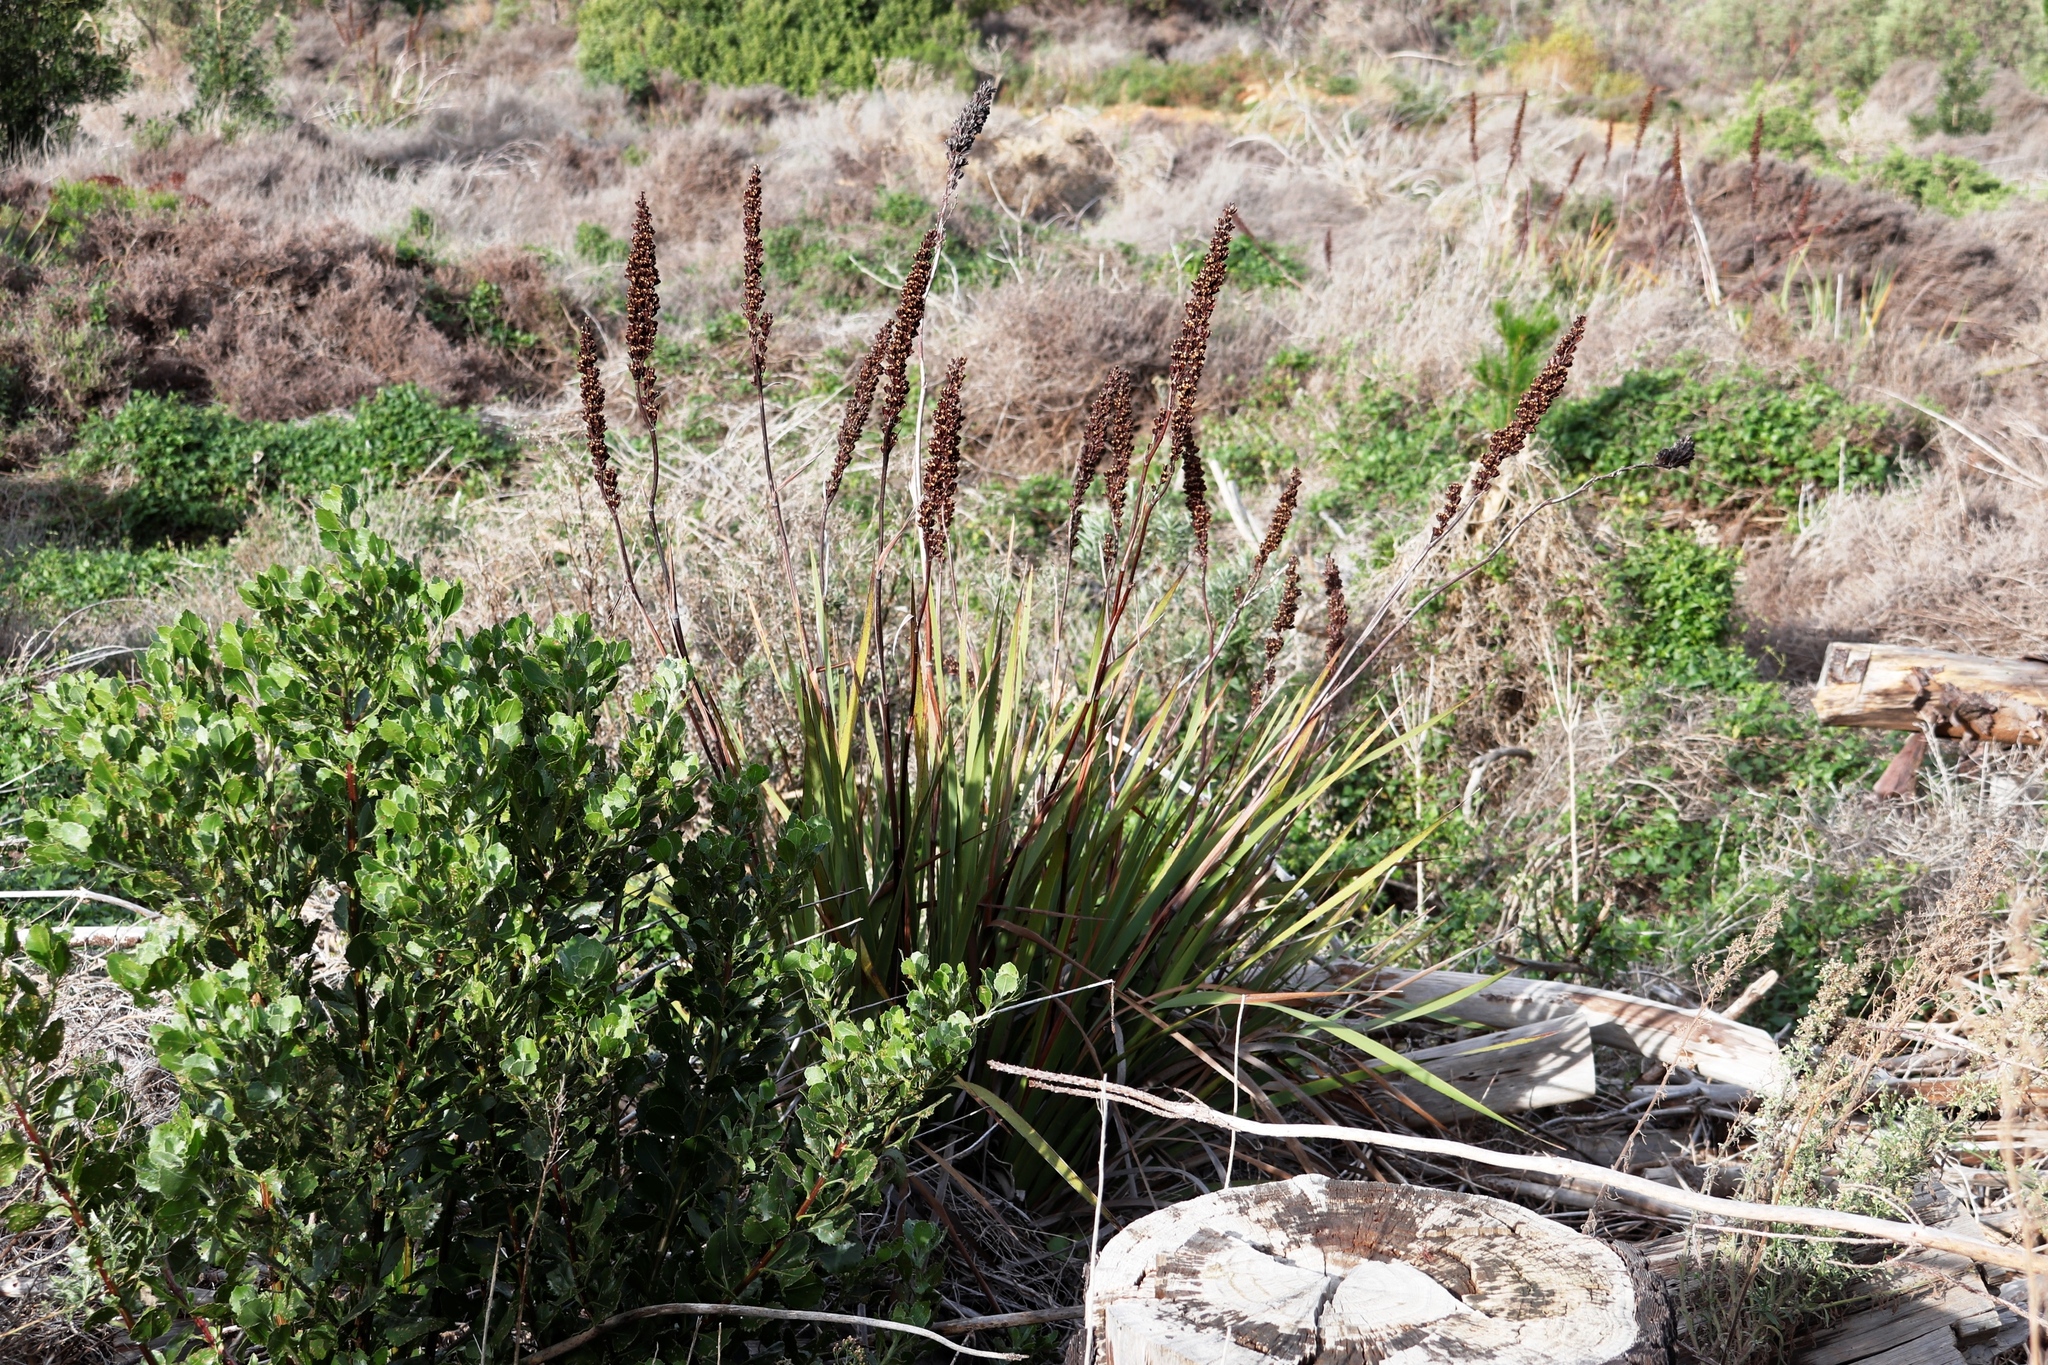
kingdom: Plantae
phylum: Tracheophyta
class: Liliopsida
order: Asparagales
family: Iridaceae
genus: Aristea
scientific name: Aristea capitata
